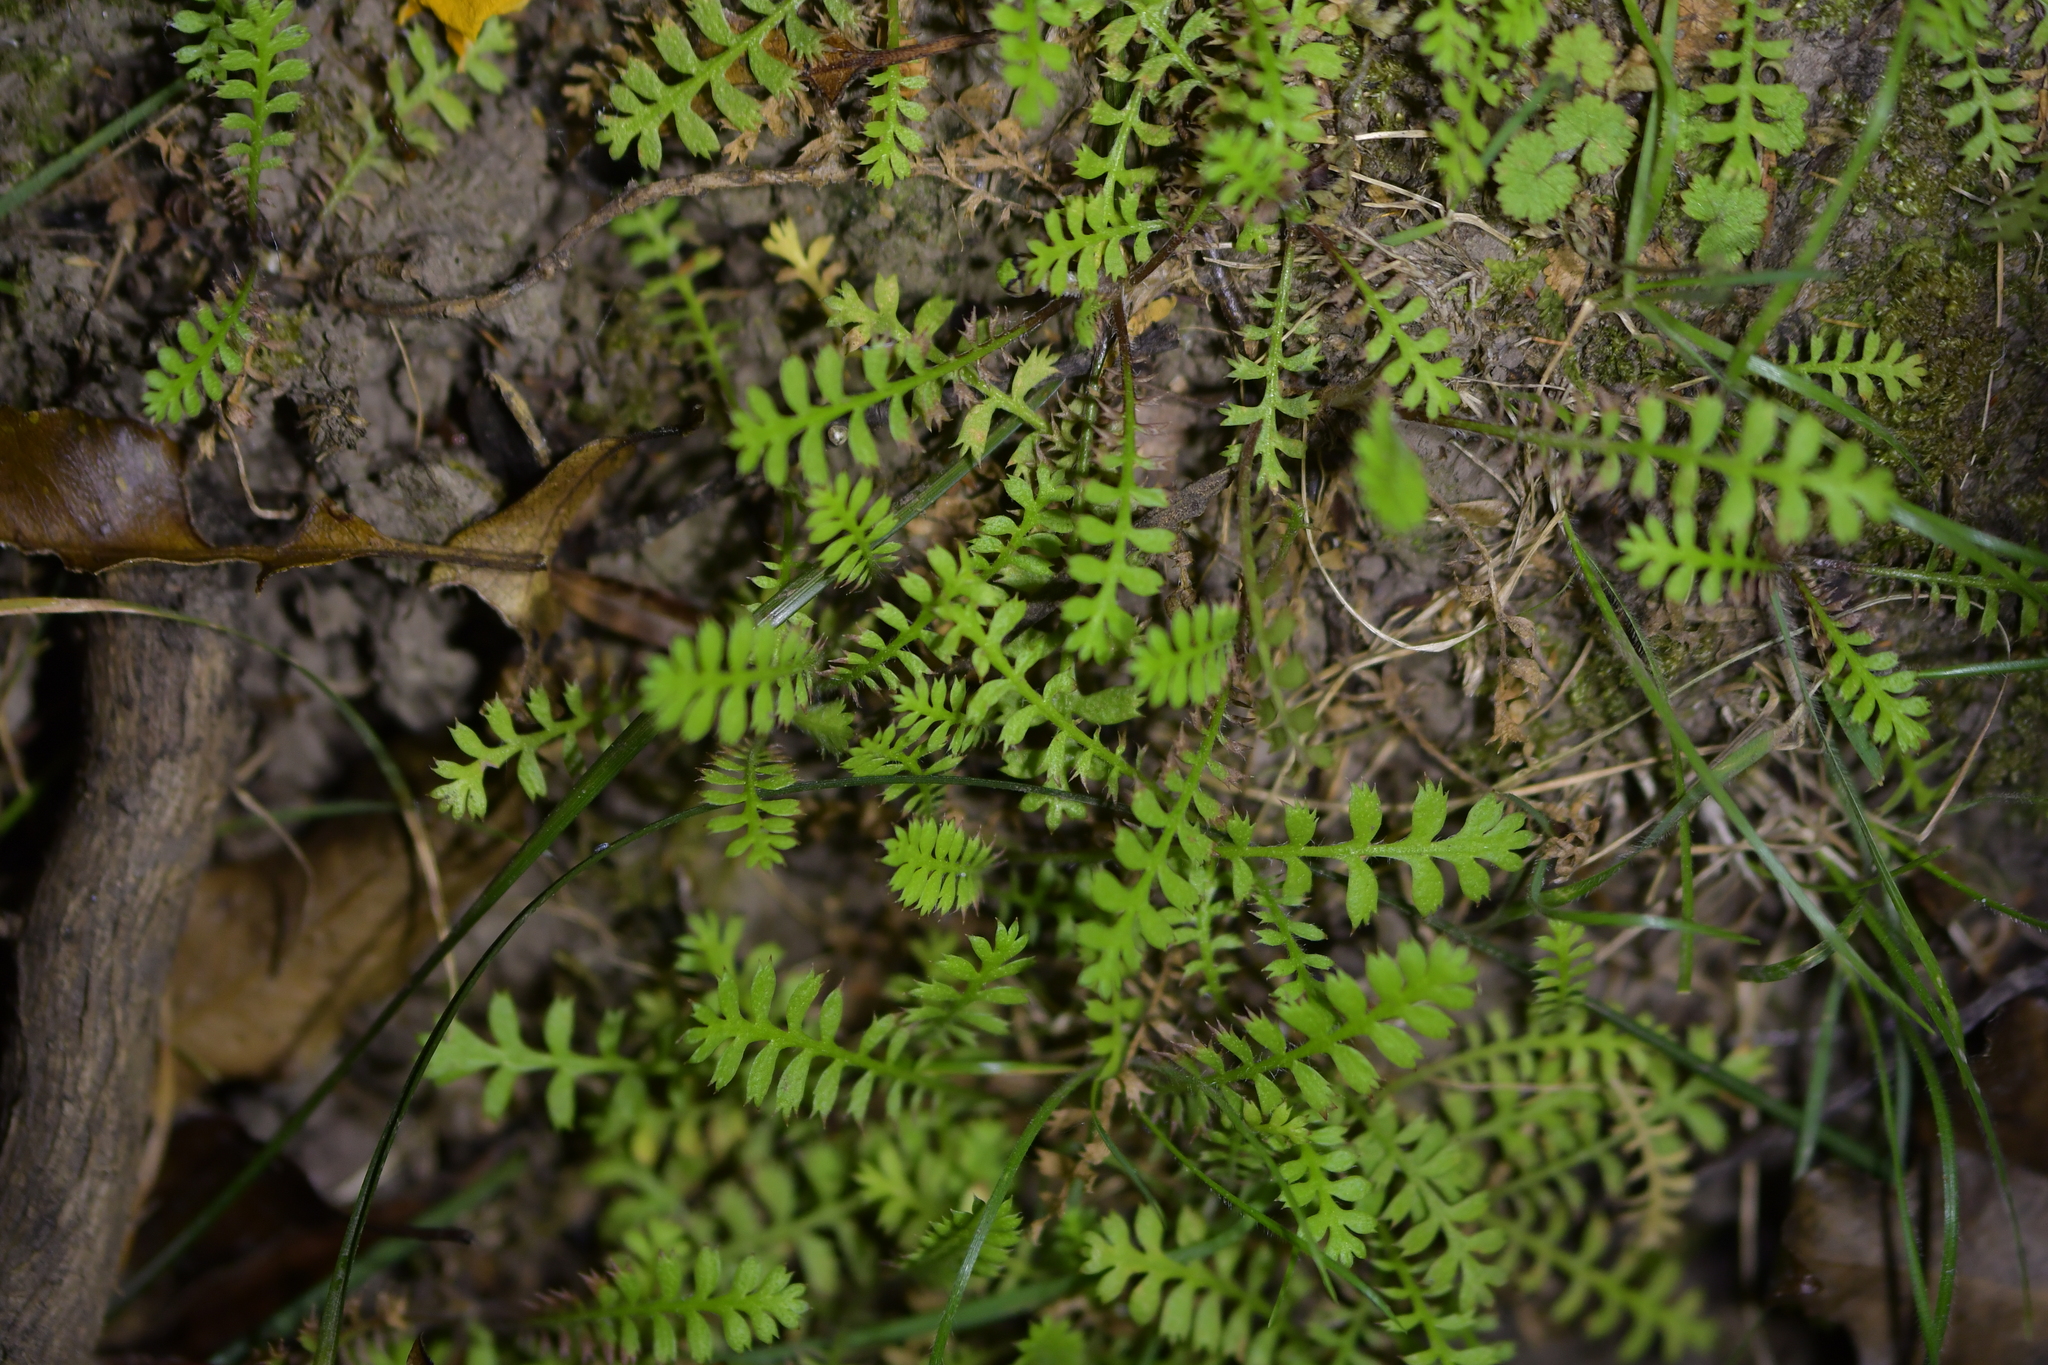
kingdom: Plantae
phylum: Tracheophyta
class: Magnoliopsida
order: Asterales
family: Asteraceae
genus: Leptinella
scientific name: Leptinella squalida
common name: New zealand brass-buttons
